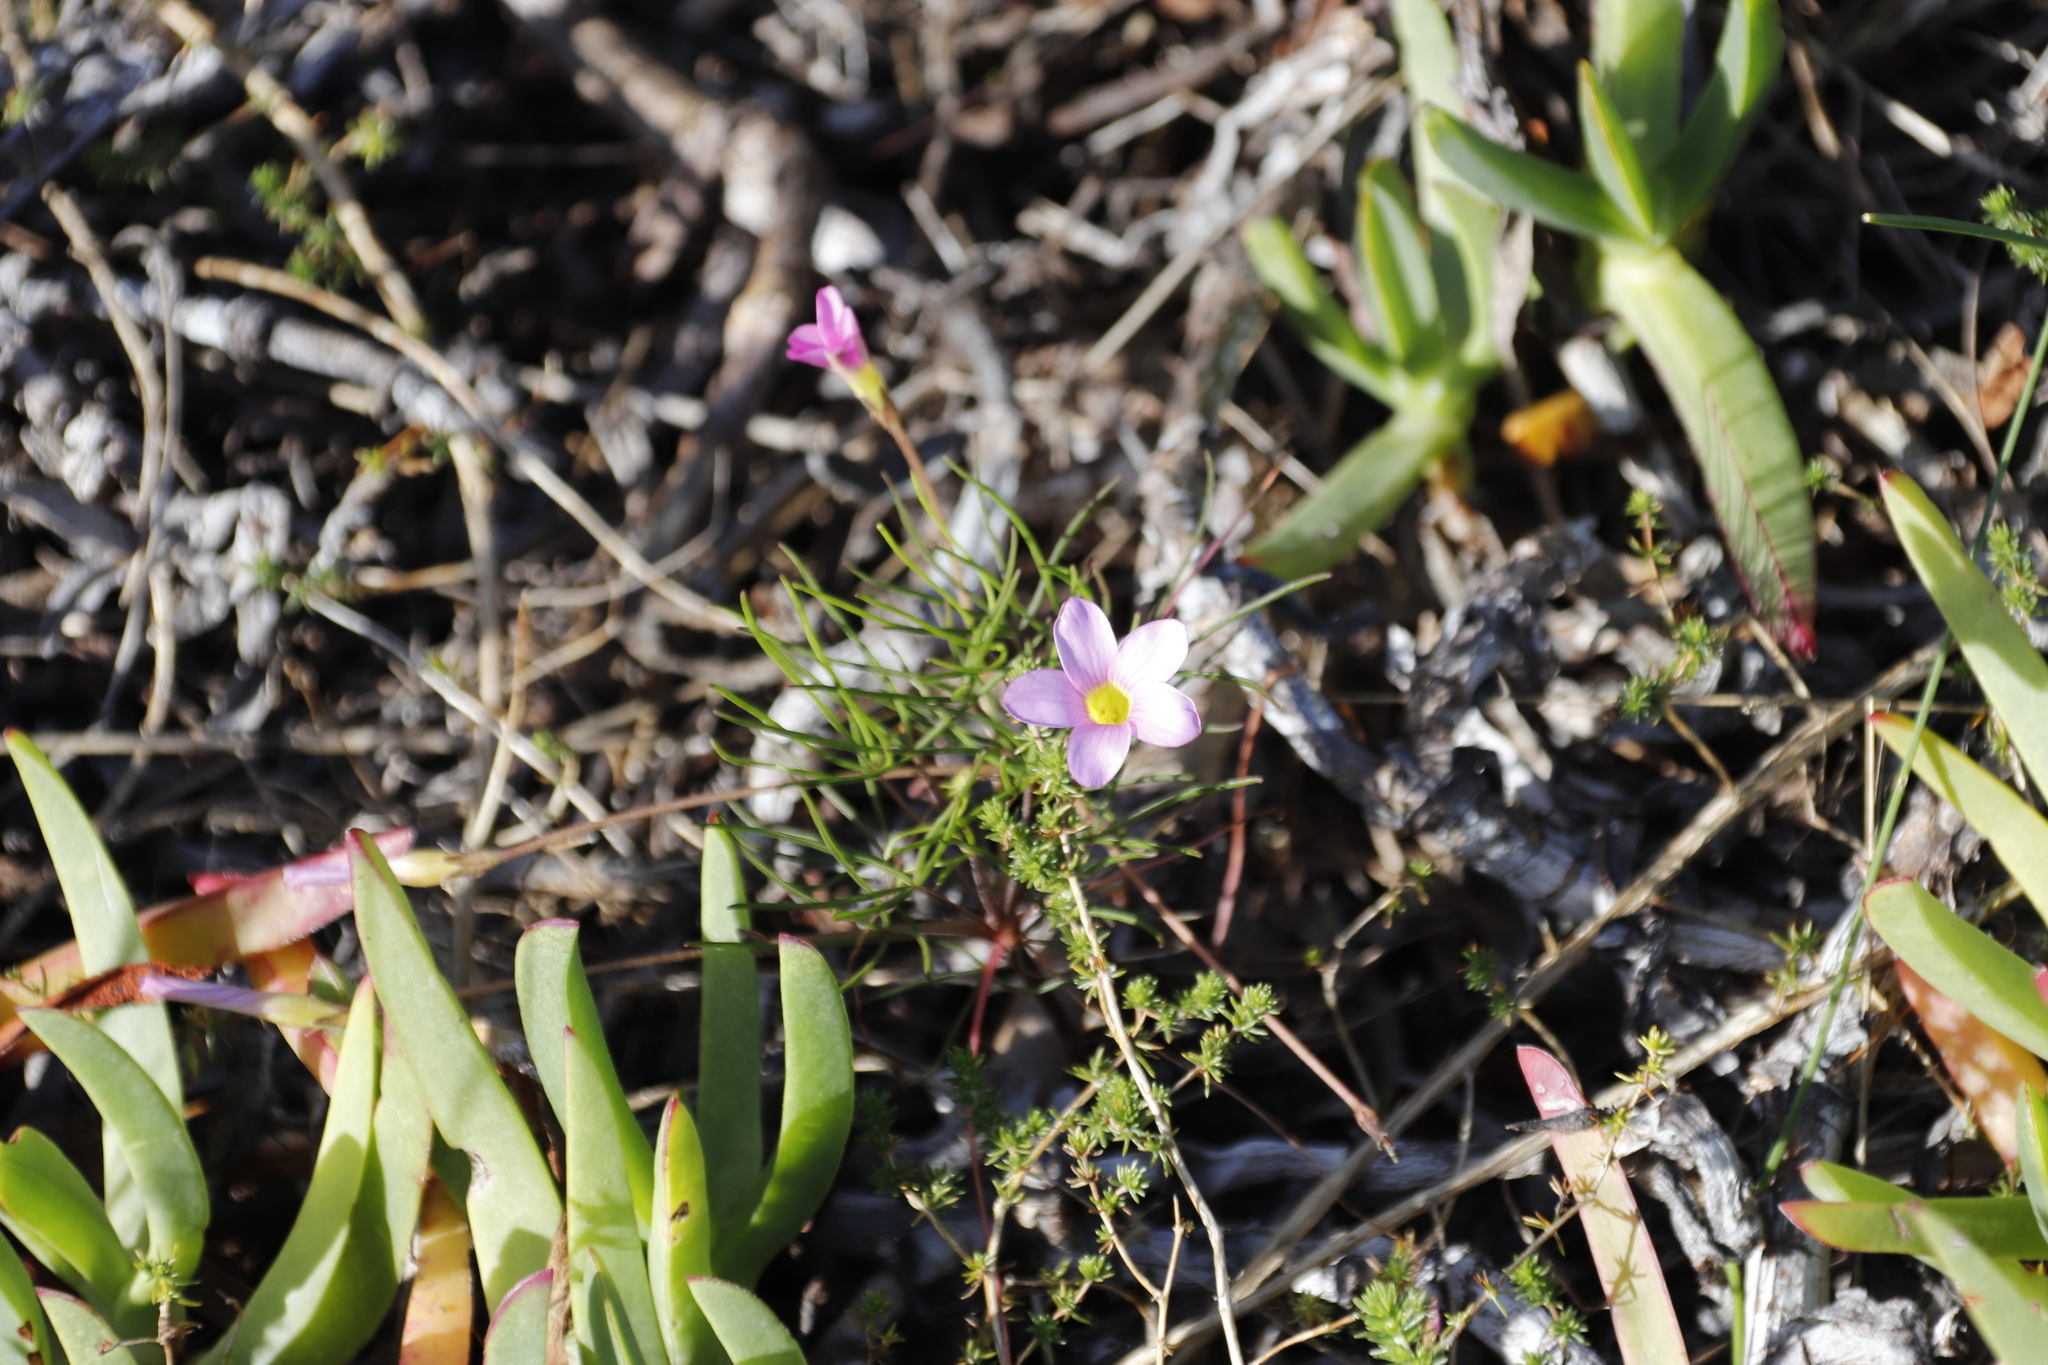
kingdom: Plantae
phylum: Tracheophyta
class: Magnoliopsida
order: Oxalidales
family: Oxalidaceae
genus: Oxalis
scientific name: Oxalis polyphylla
